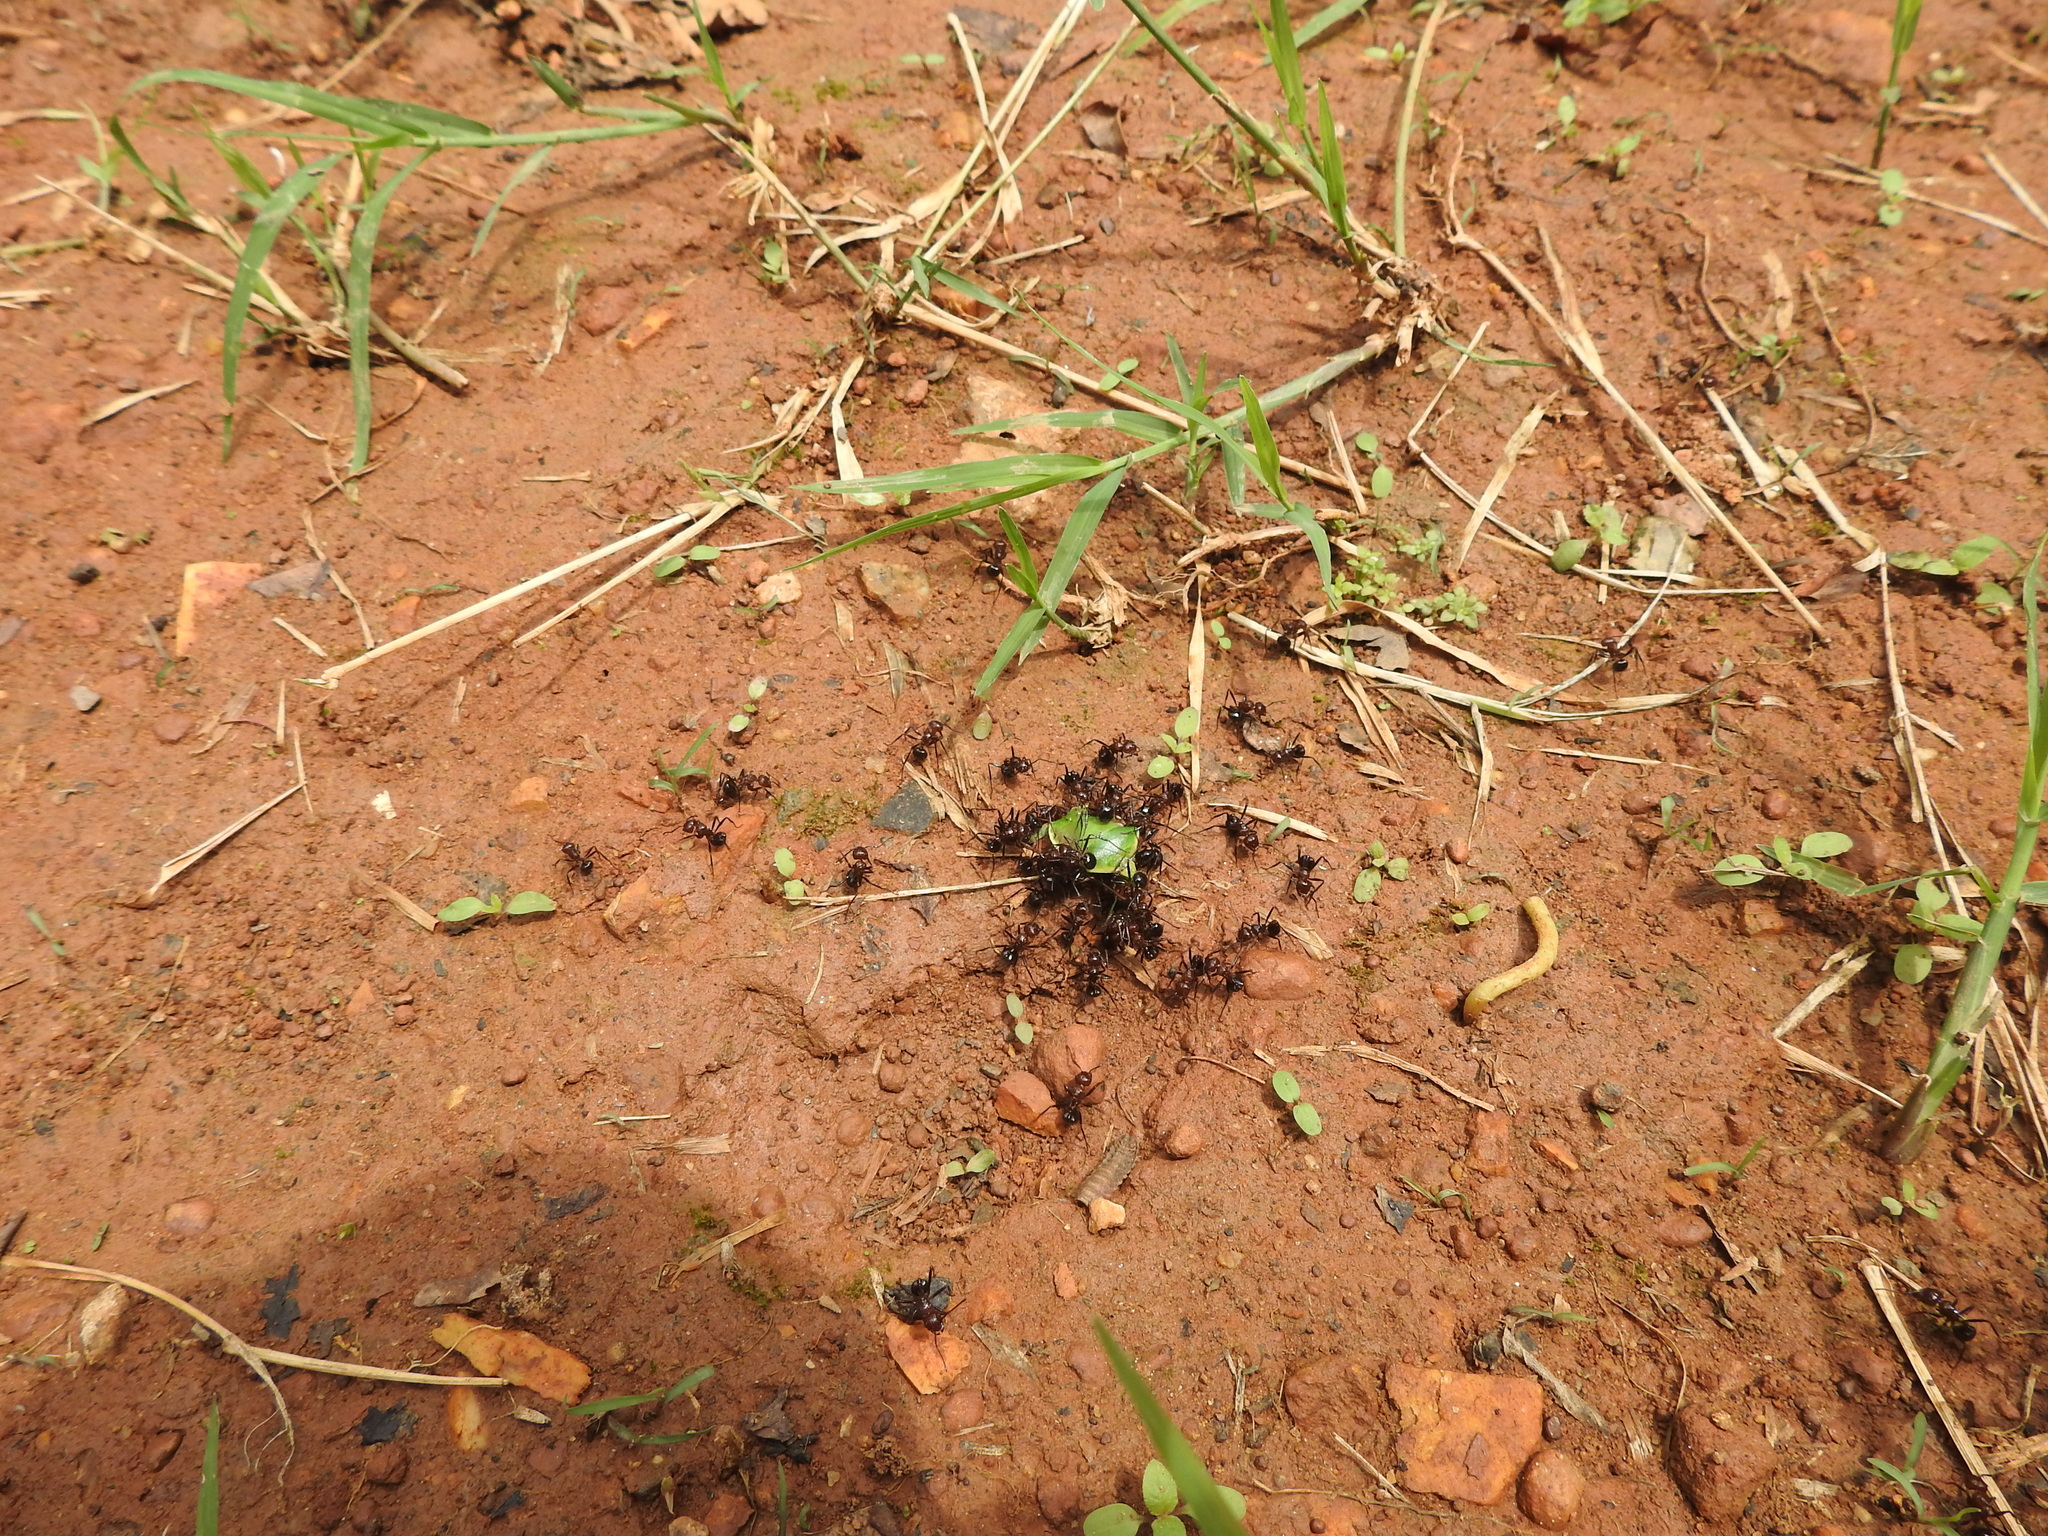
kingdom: Animalia
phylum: Arthropoda
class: Insecta
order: Hymenoptera
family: Formicidae
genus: Myrmicaria
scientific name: Myrmicaria brunnea
